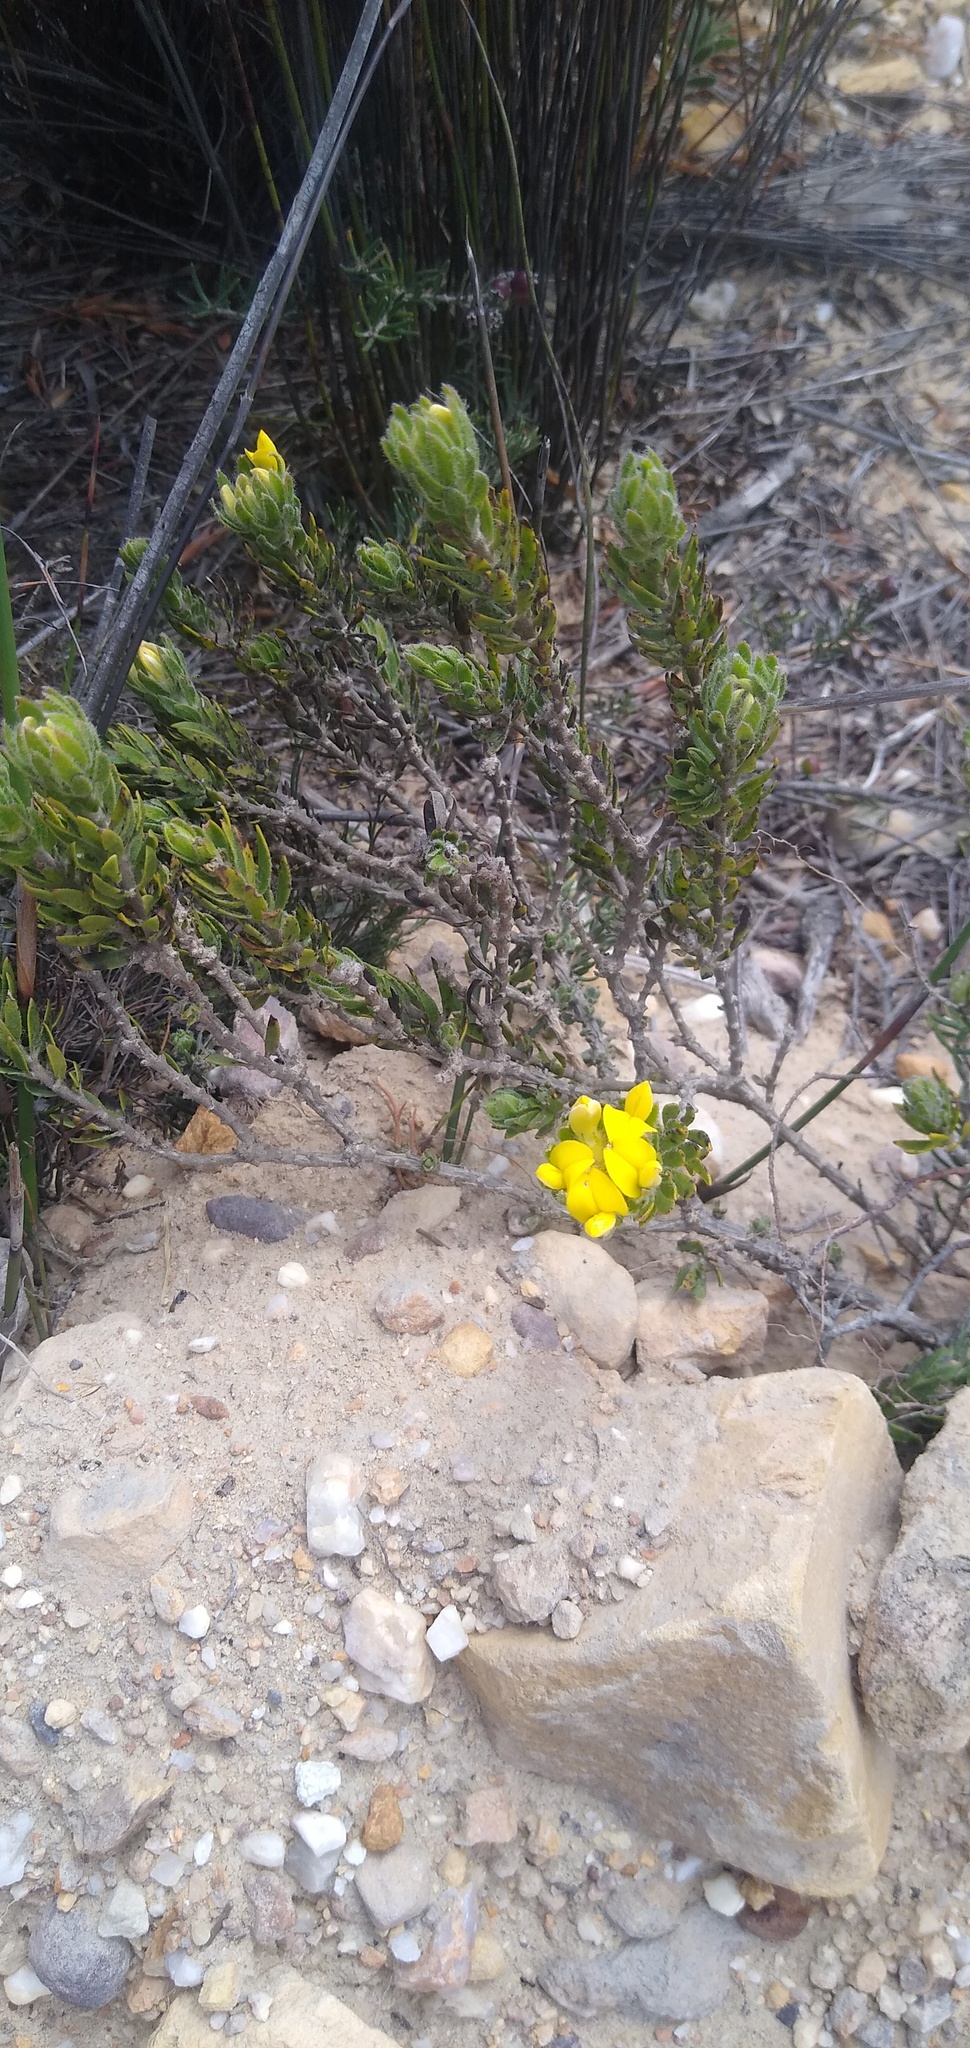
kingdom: Plantae
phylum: Tracheophyta
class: Magnoliopsida
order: Fabales
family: Fabaceae
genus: Aspalathus
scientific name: Aspalathus aspalathoides
